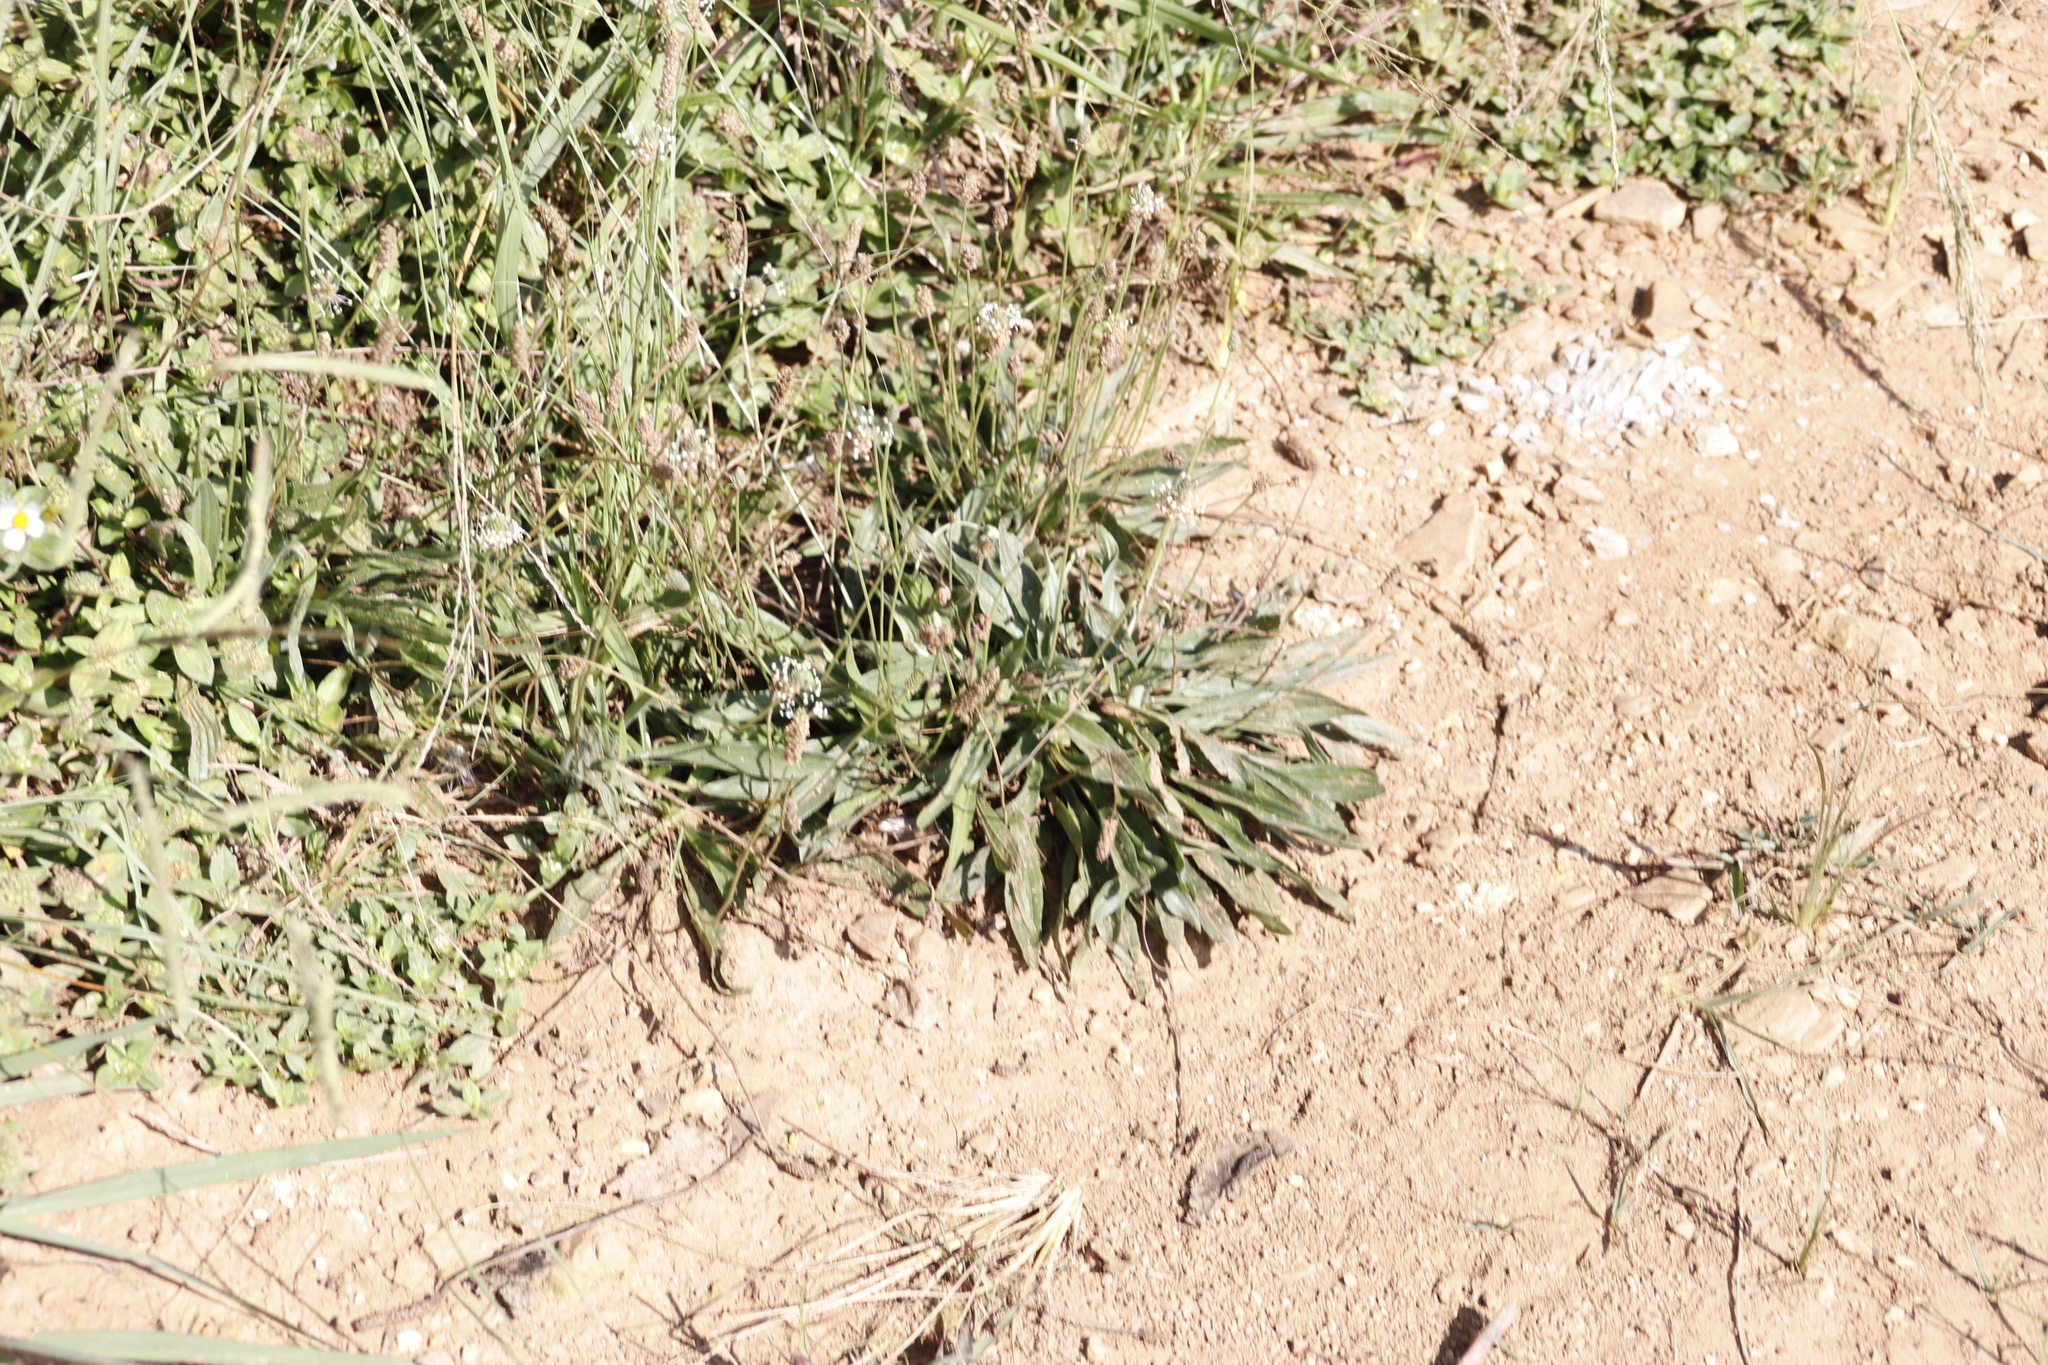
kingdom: Plantae
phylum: Tracheophyta
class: Magnoliopsida
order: Lamiales
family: Plantaginaceae
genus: Plantago
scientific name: Plantago lanceolata
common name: Ribwort plantain
